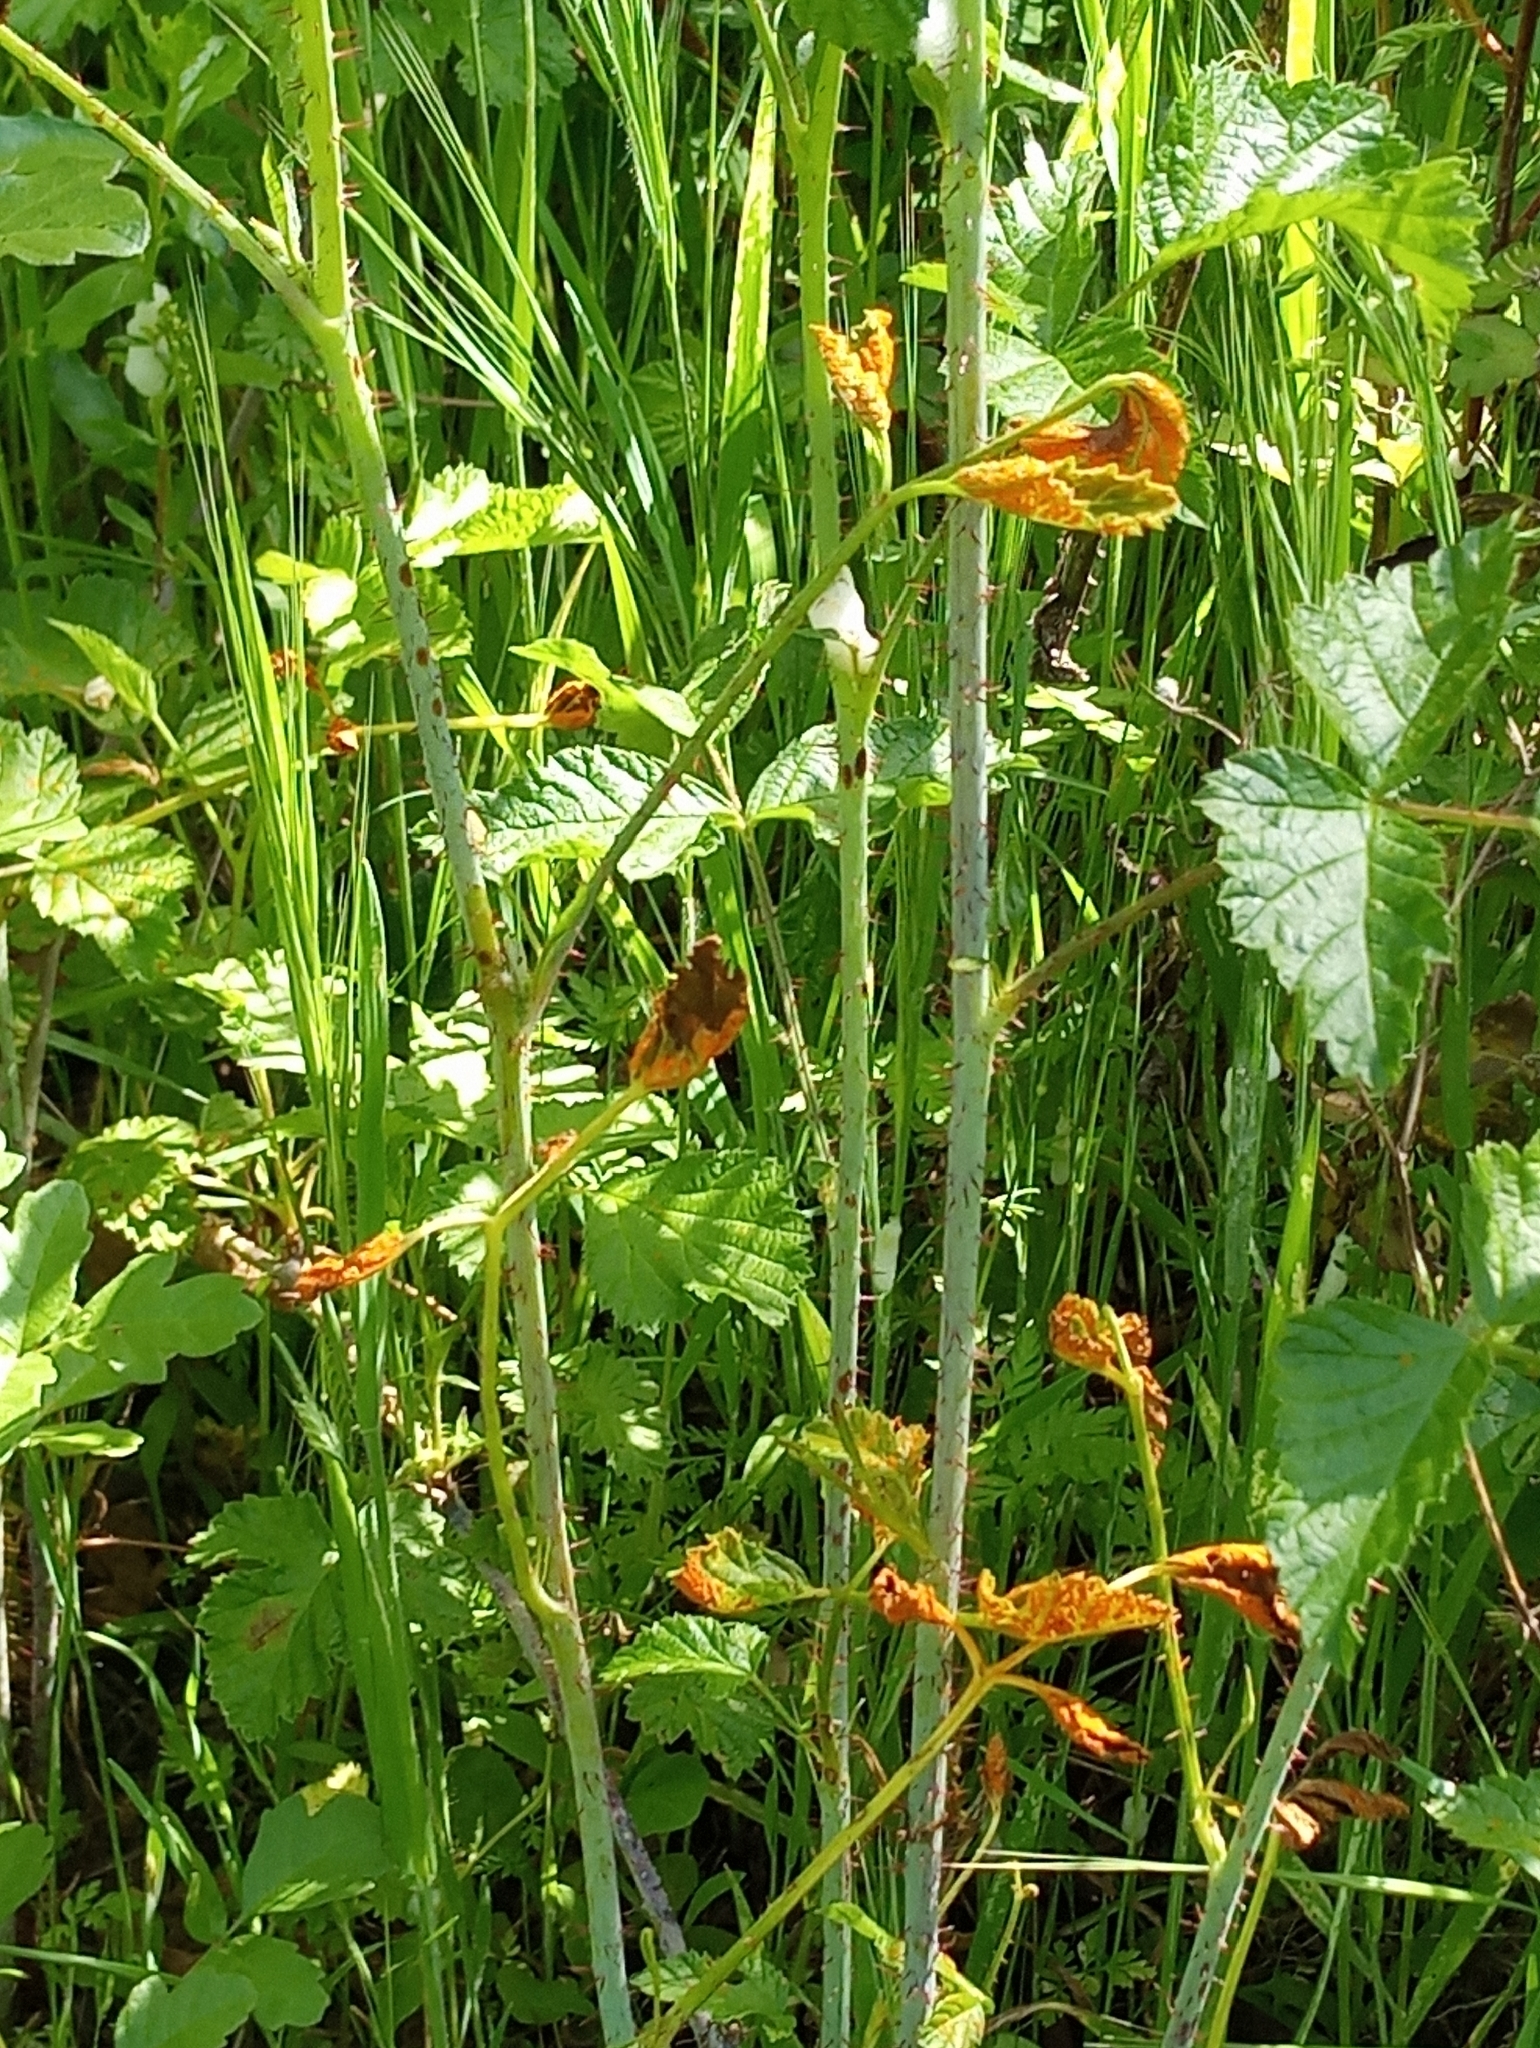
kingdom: Fungi
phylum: Basidiomycota
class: Pucciniomycetes
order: Pucciniales
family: Phragmidiaceae
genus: Gymnoconia
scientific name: Gymnoconia nitens
